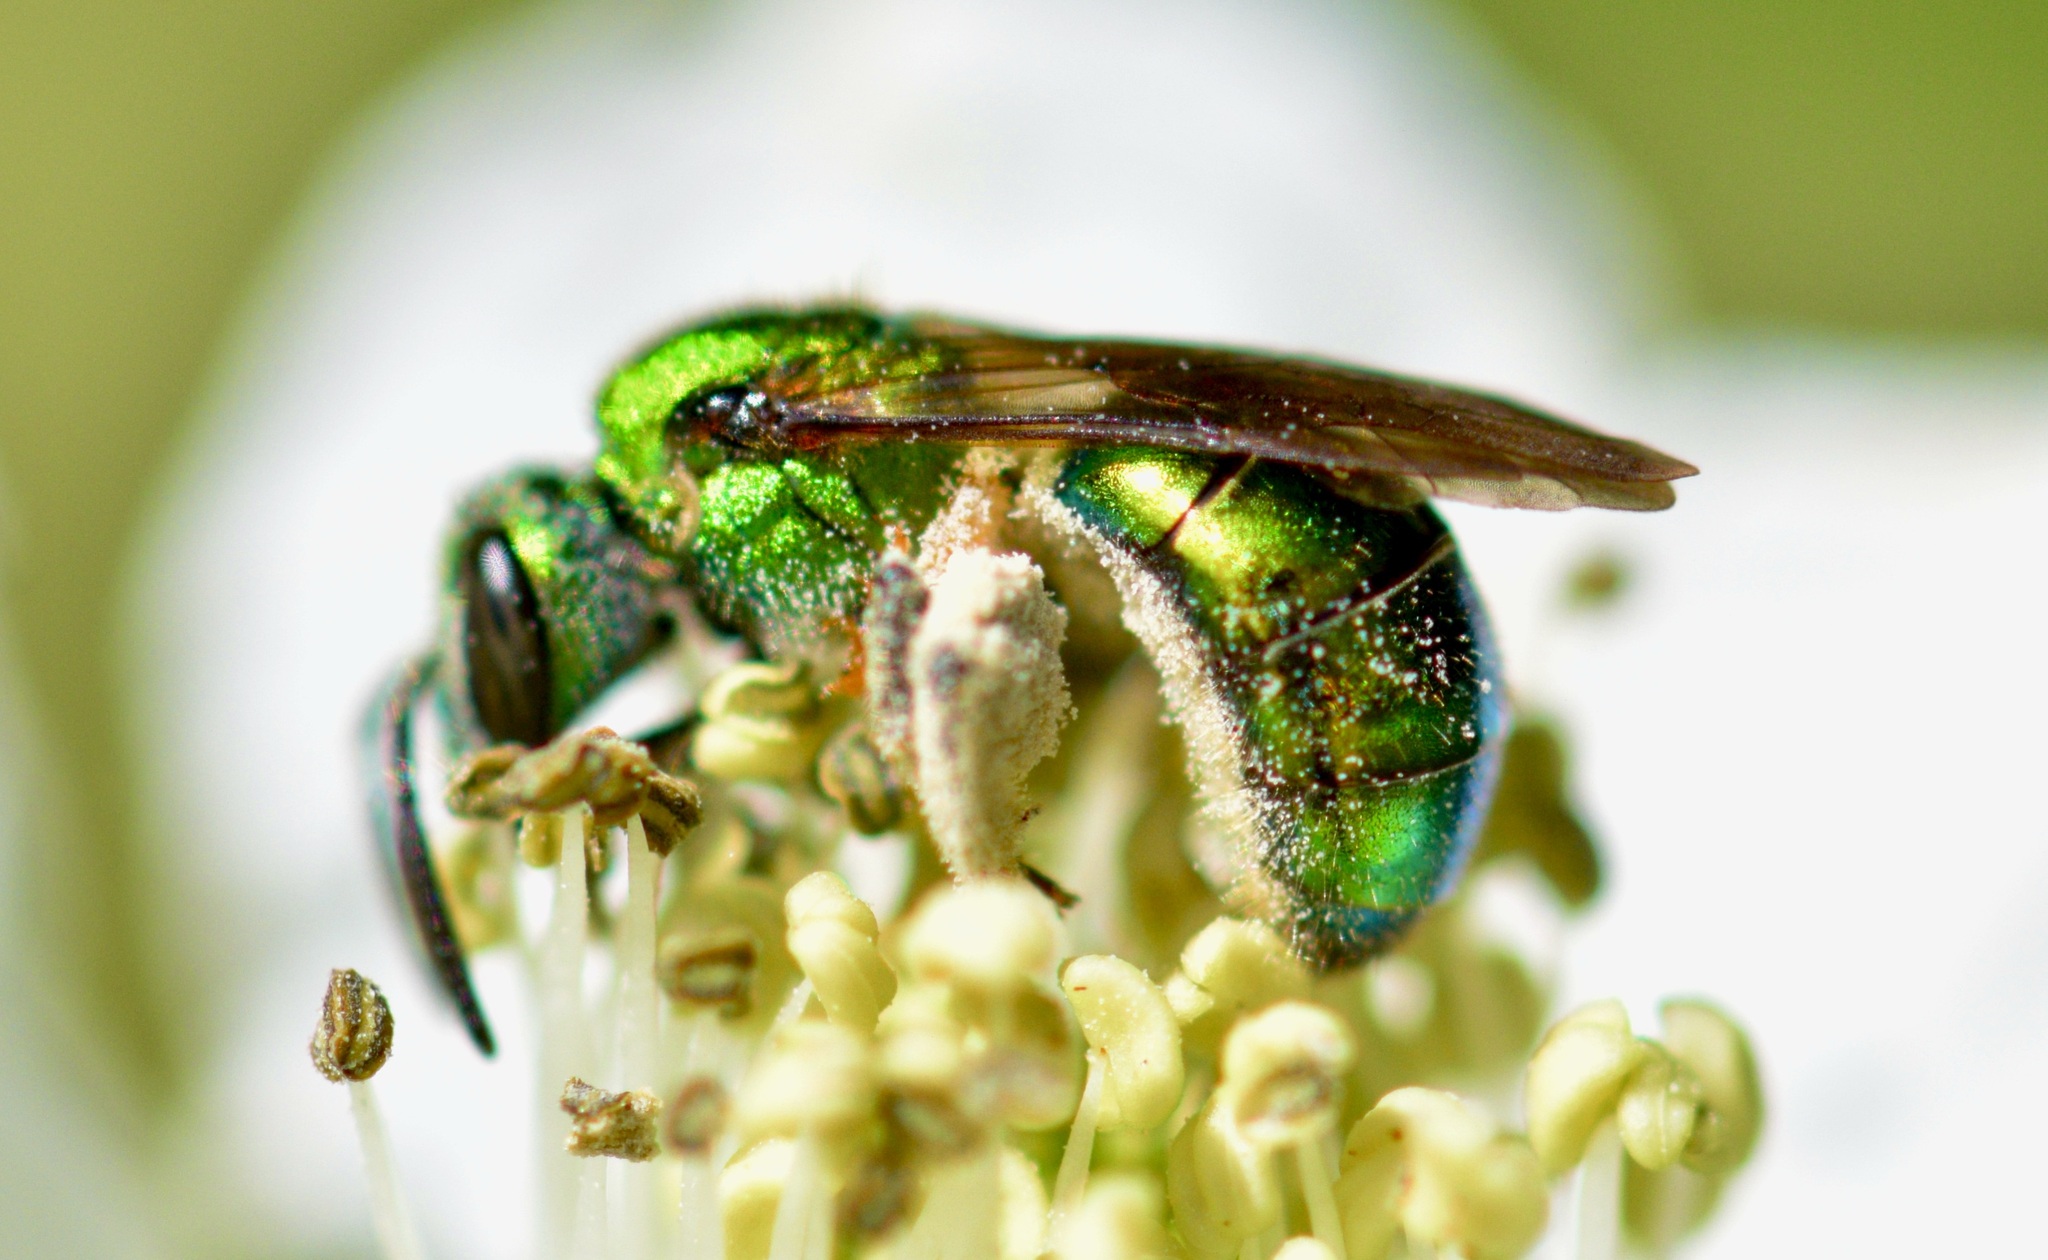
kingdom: Animalia
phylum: Arthropoda
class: Insecta
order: Hymenoptera
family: Halictidae
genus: Augochlora
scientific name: Augochlora pura
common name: Pure green sweat bee
